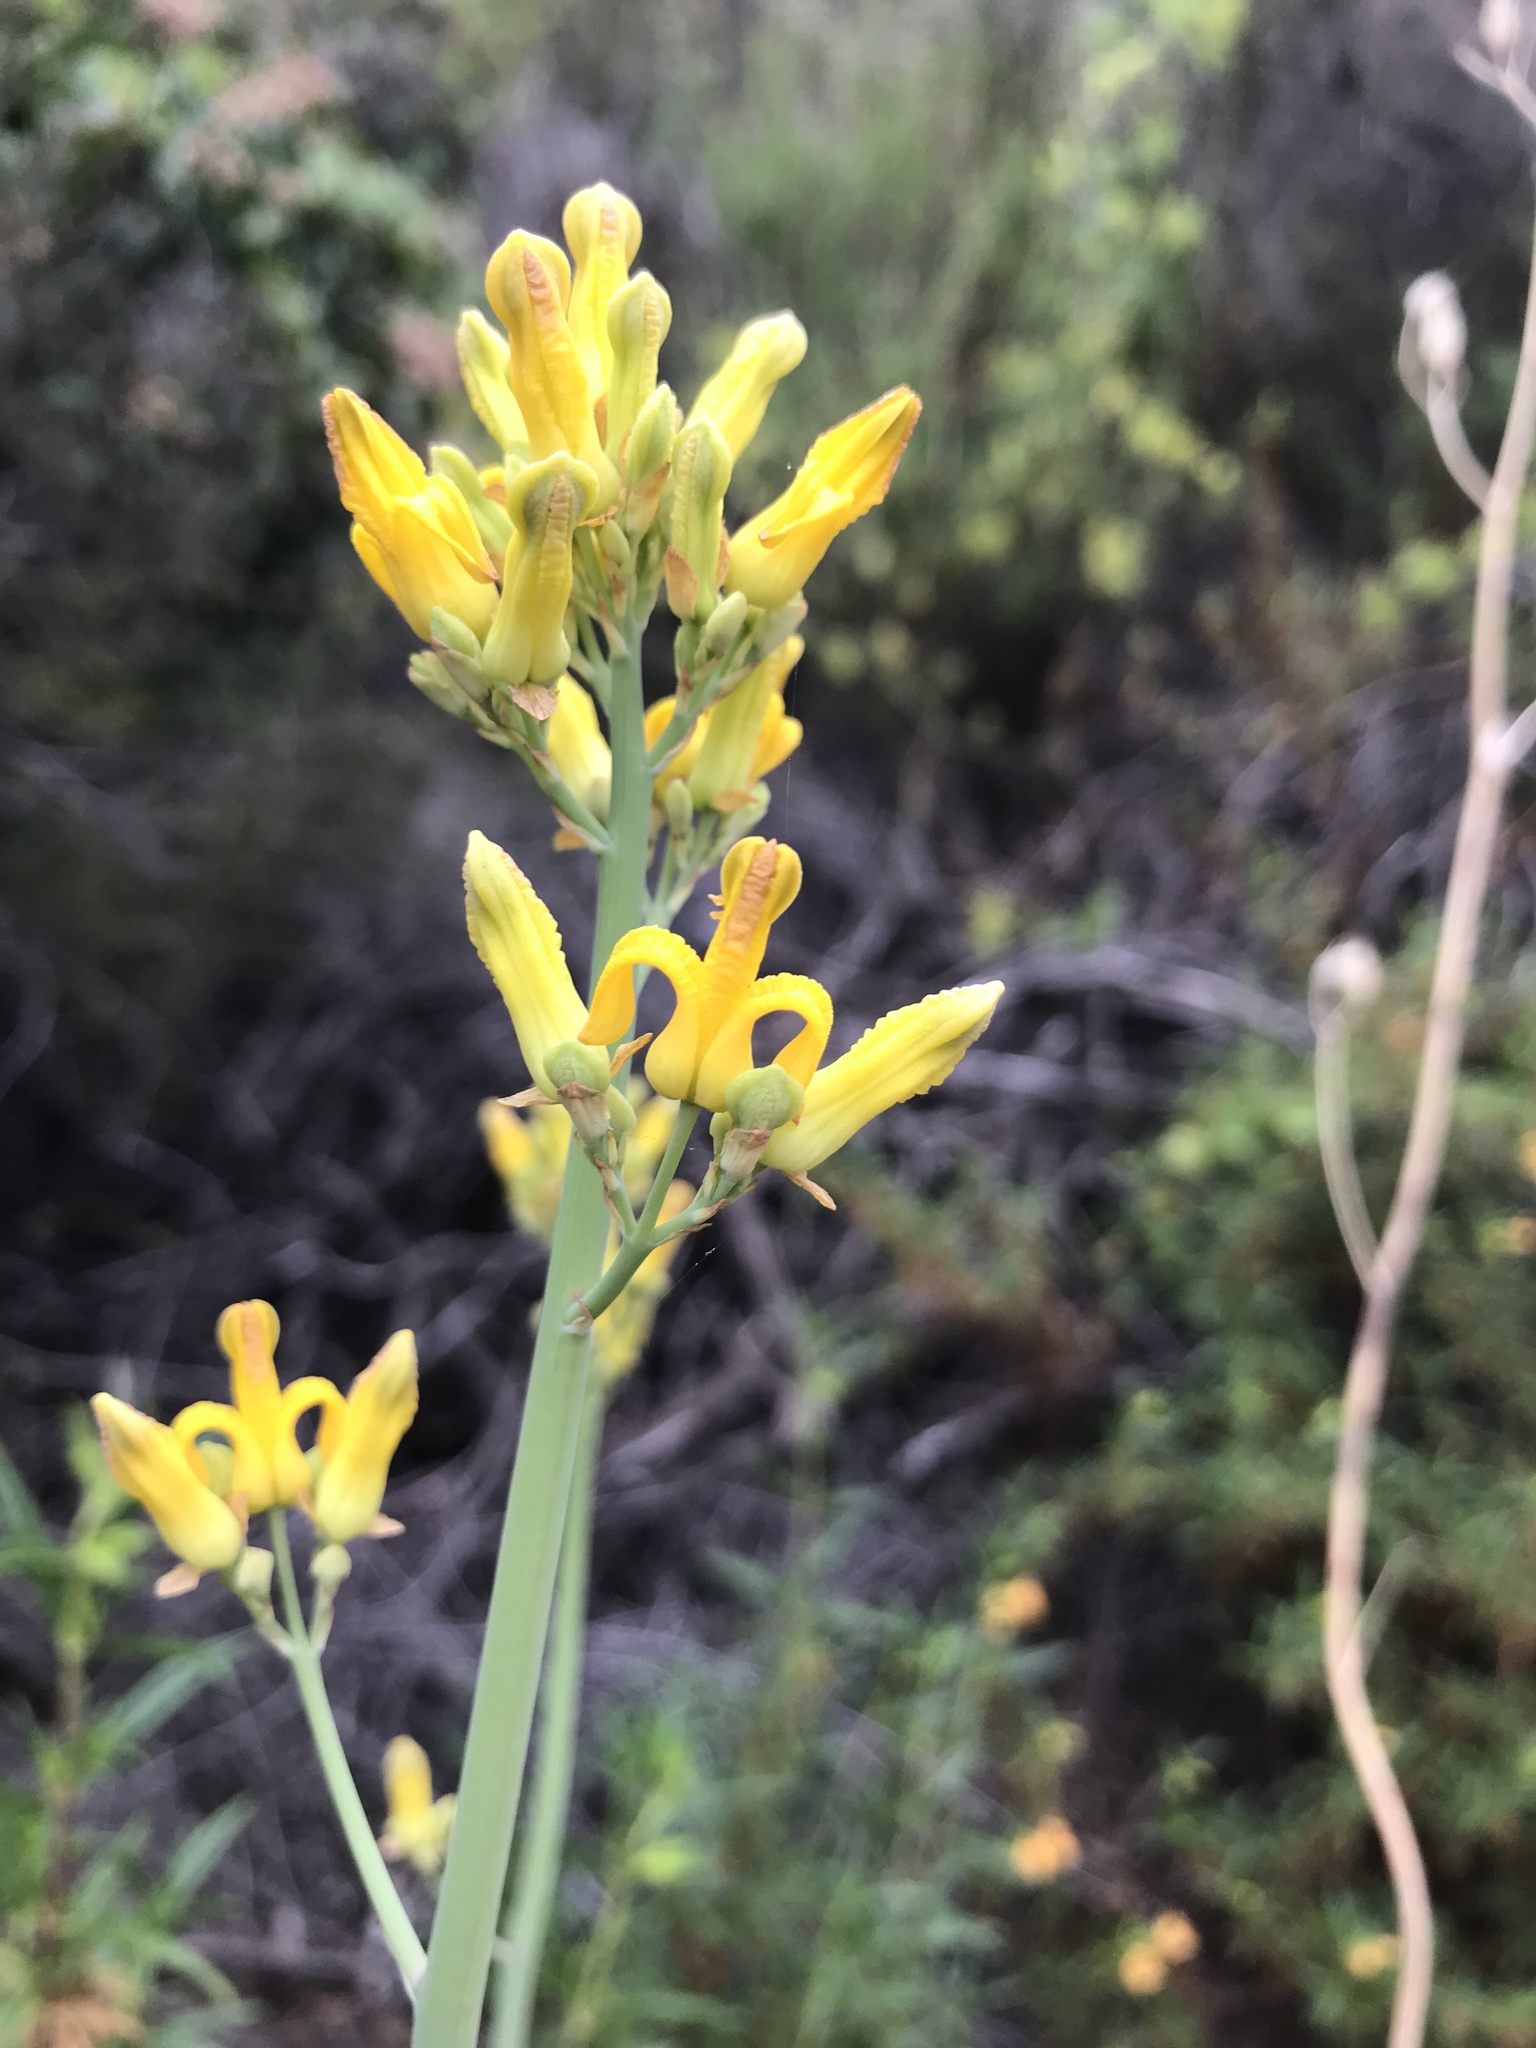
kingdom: Plantae
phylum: Tracheophyta
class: Magnoliopsida
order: Ranunculales
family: Papaveraceae
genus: Ehrendorferia
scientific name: Ehrendorferia chrysantha
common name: Golden eardrops
